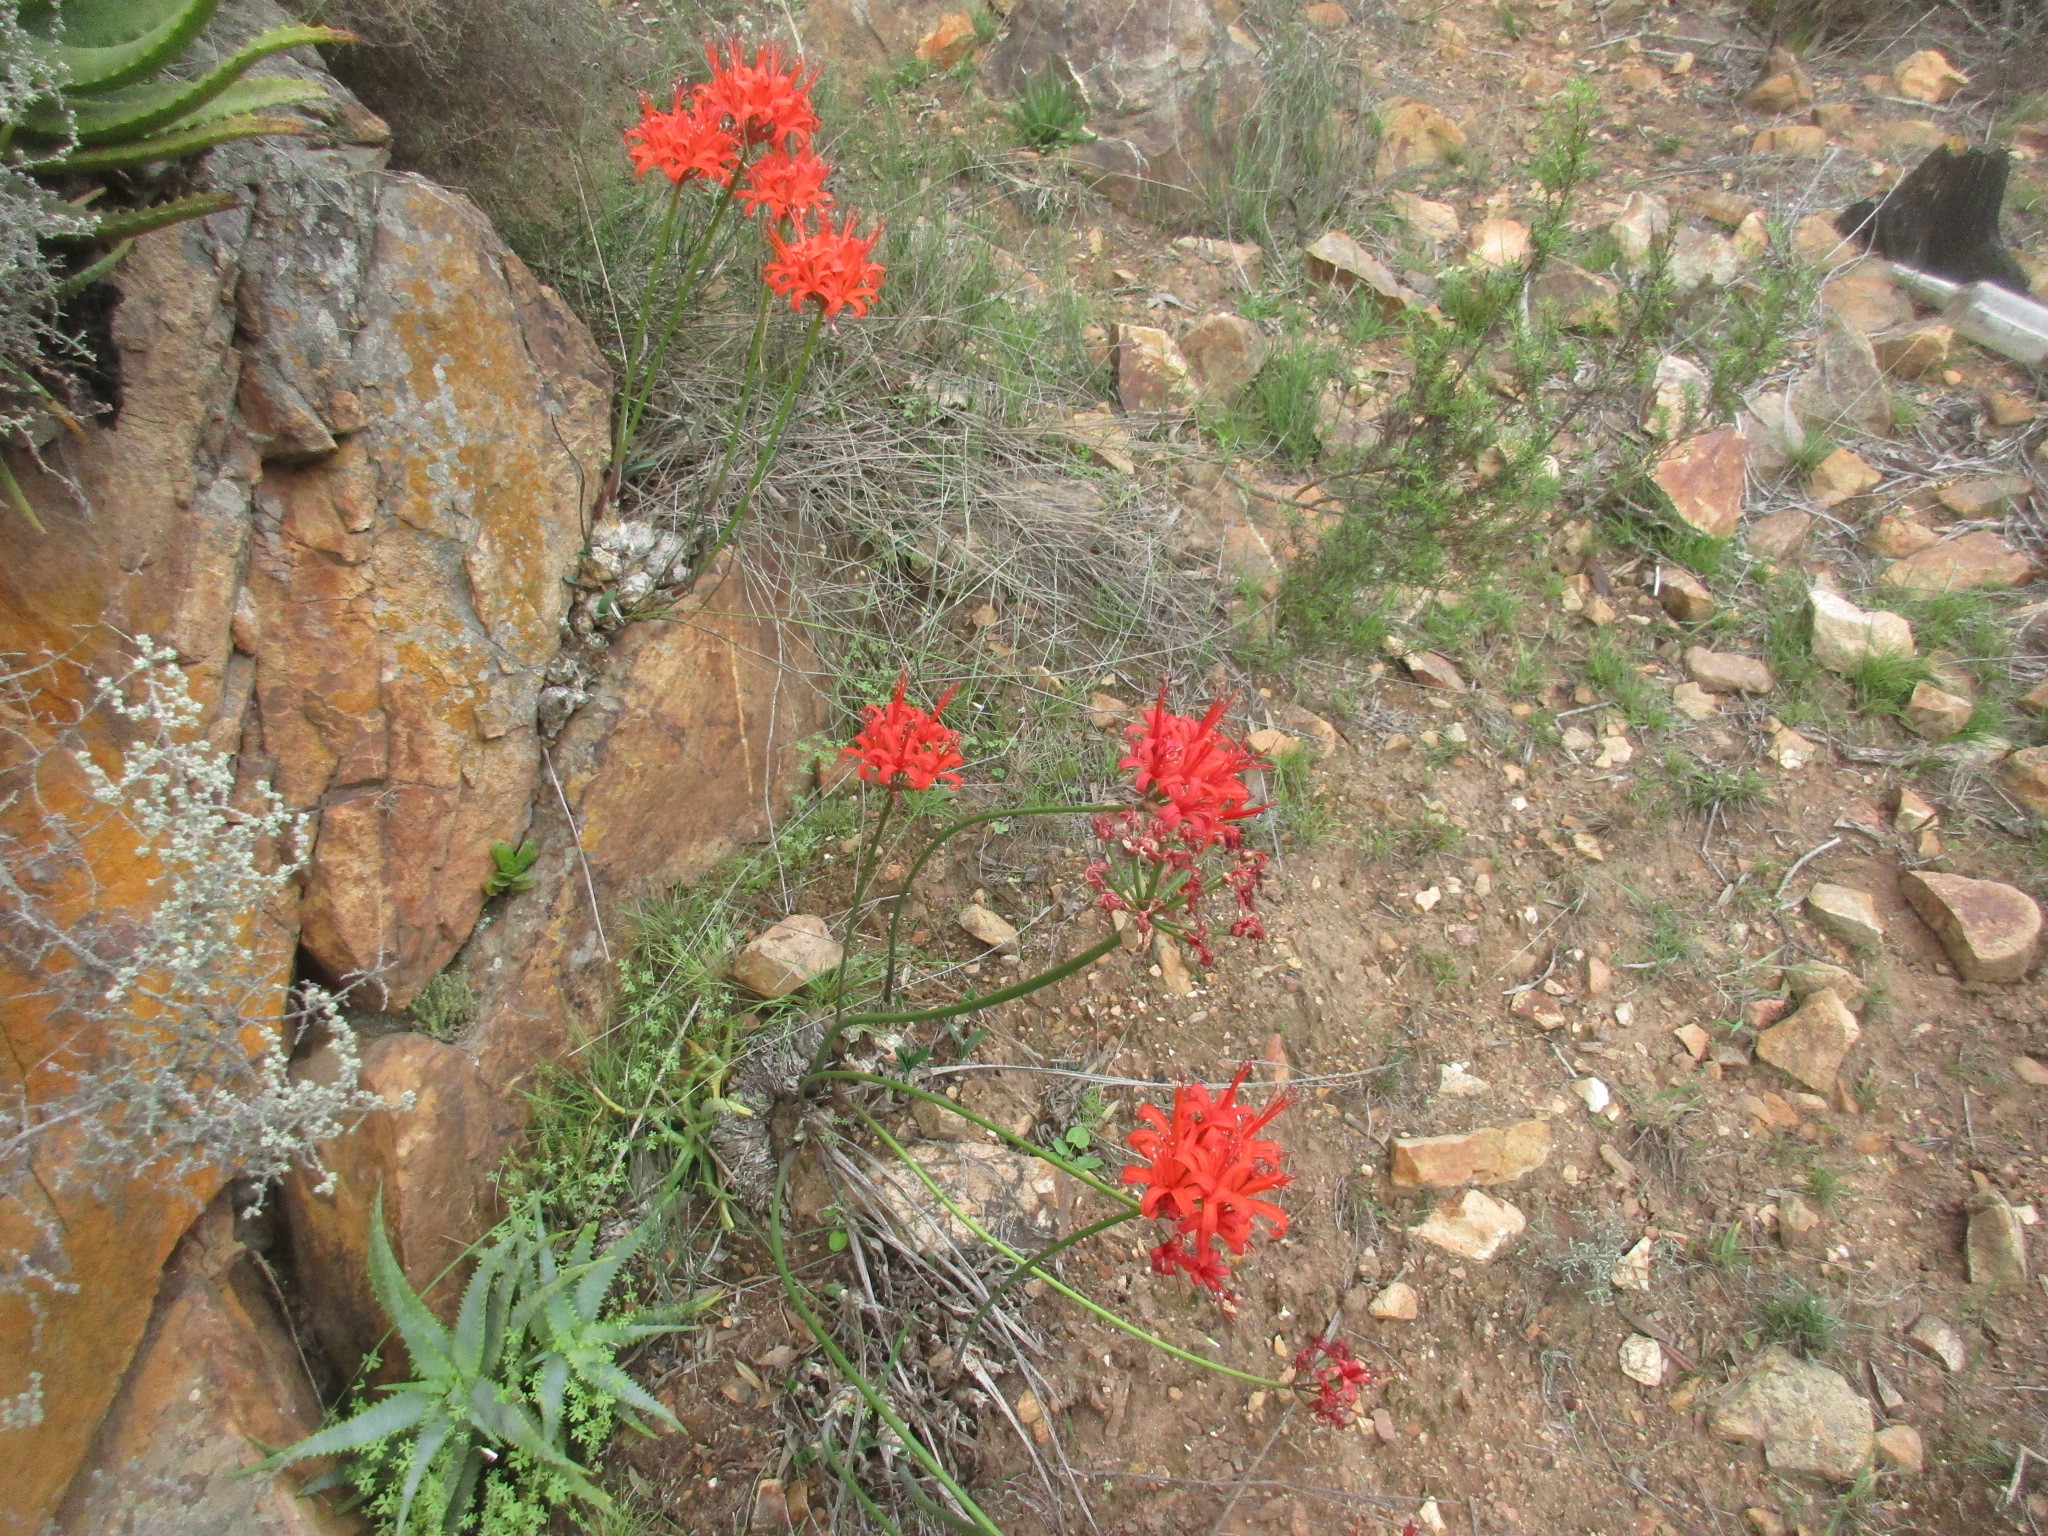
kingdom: Plantae
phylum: Tracheophyta
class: Liliopsida
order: Asparagales
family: Amaryllidaceae
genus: Nerine
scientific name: Nerine sarniensis
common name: Guernsey-lily
